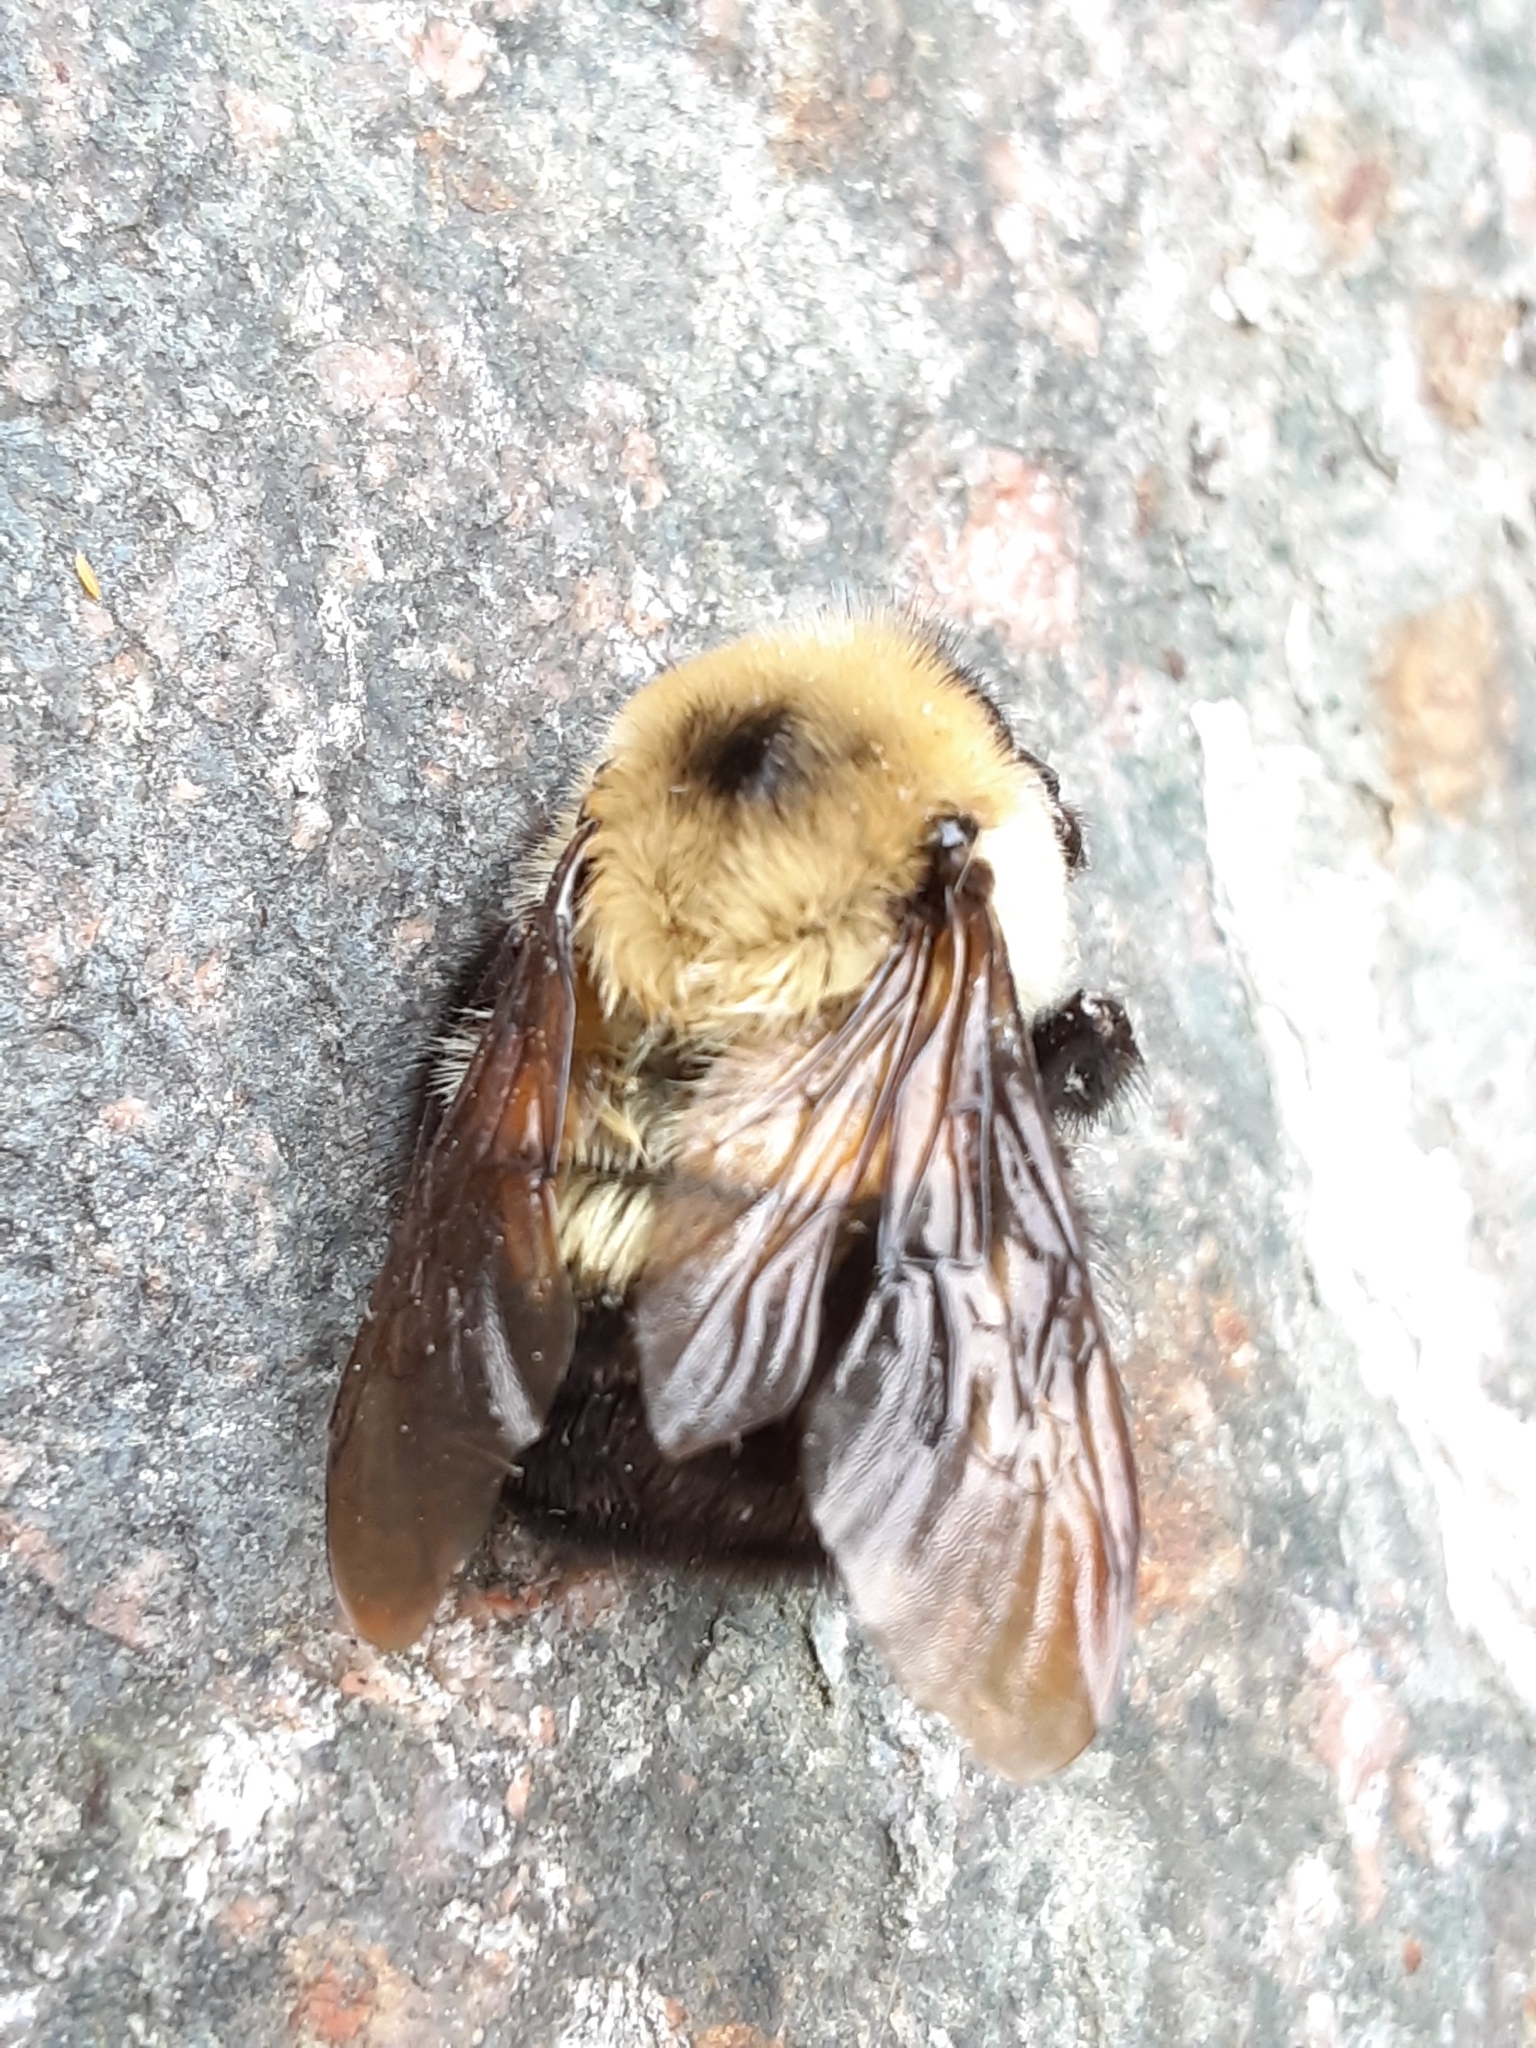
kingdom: Animalia
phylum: Arthropoda
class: Insecta
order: Hymenoptera
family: Apidae
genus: Bombus
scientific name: Bombus bimaculatus
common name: Two-spotted bumble bee
